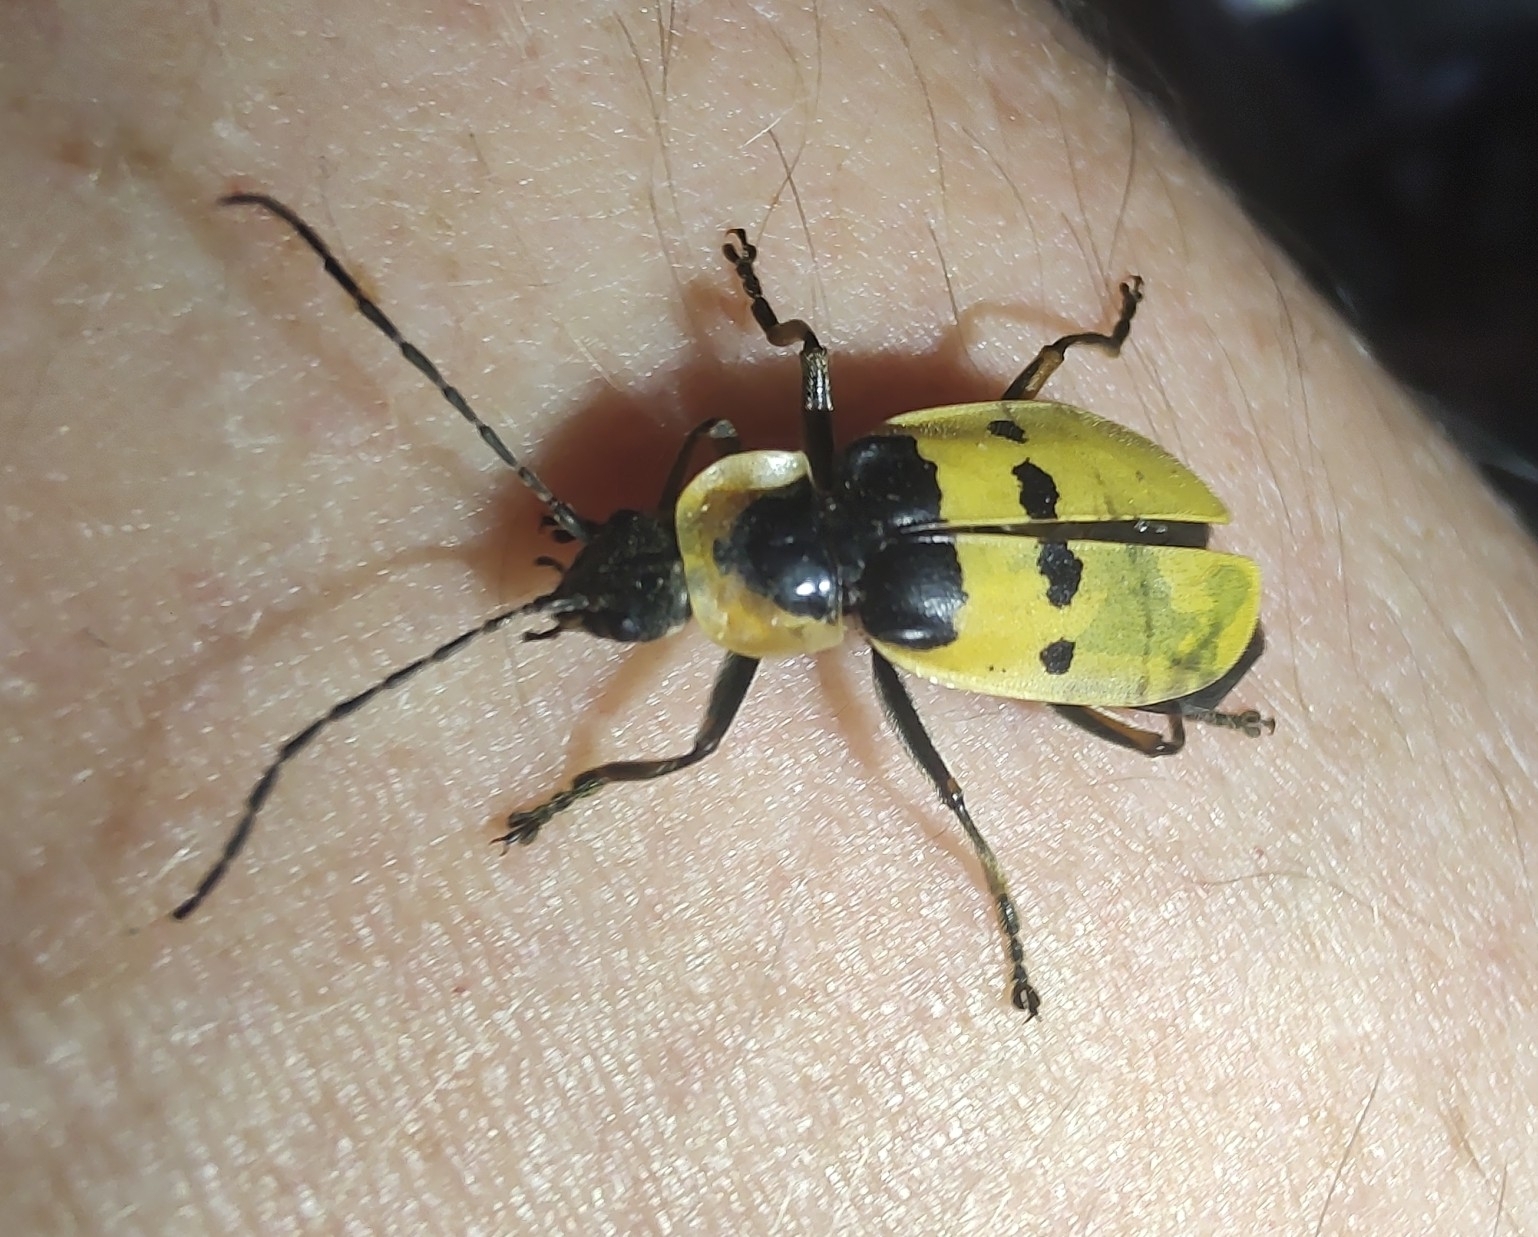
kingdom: Animalia
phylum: Arthropoda
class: Insecta
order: Coleoptera
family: Cantharidae
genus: Chauliognathus
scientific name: Chauliognathus
